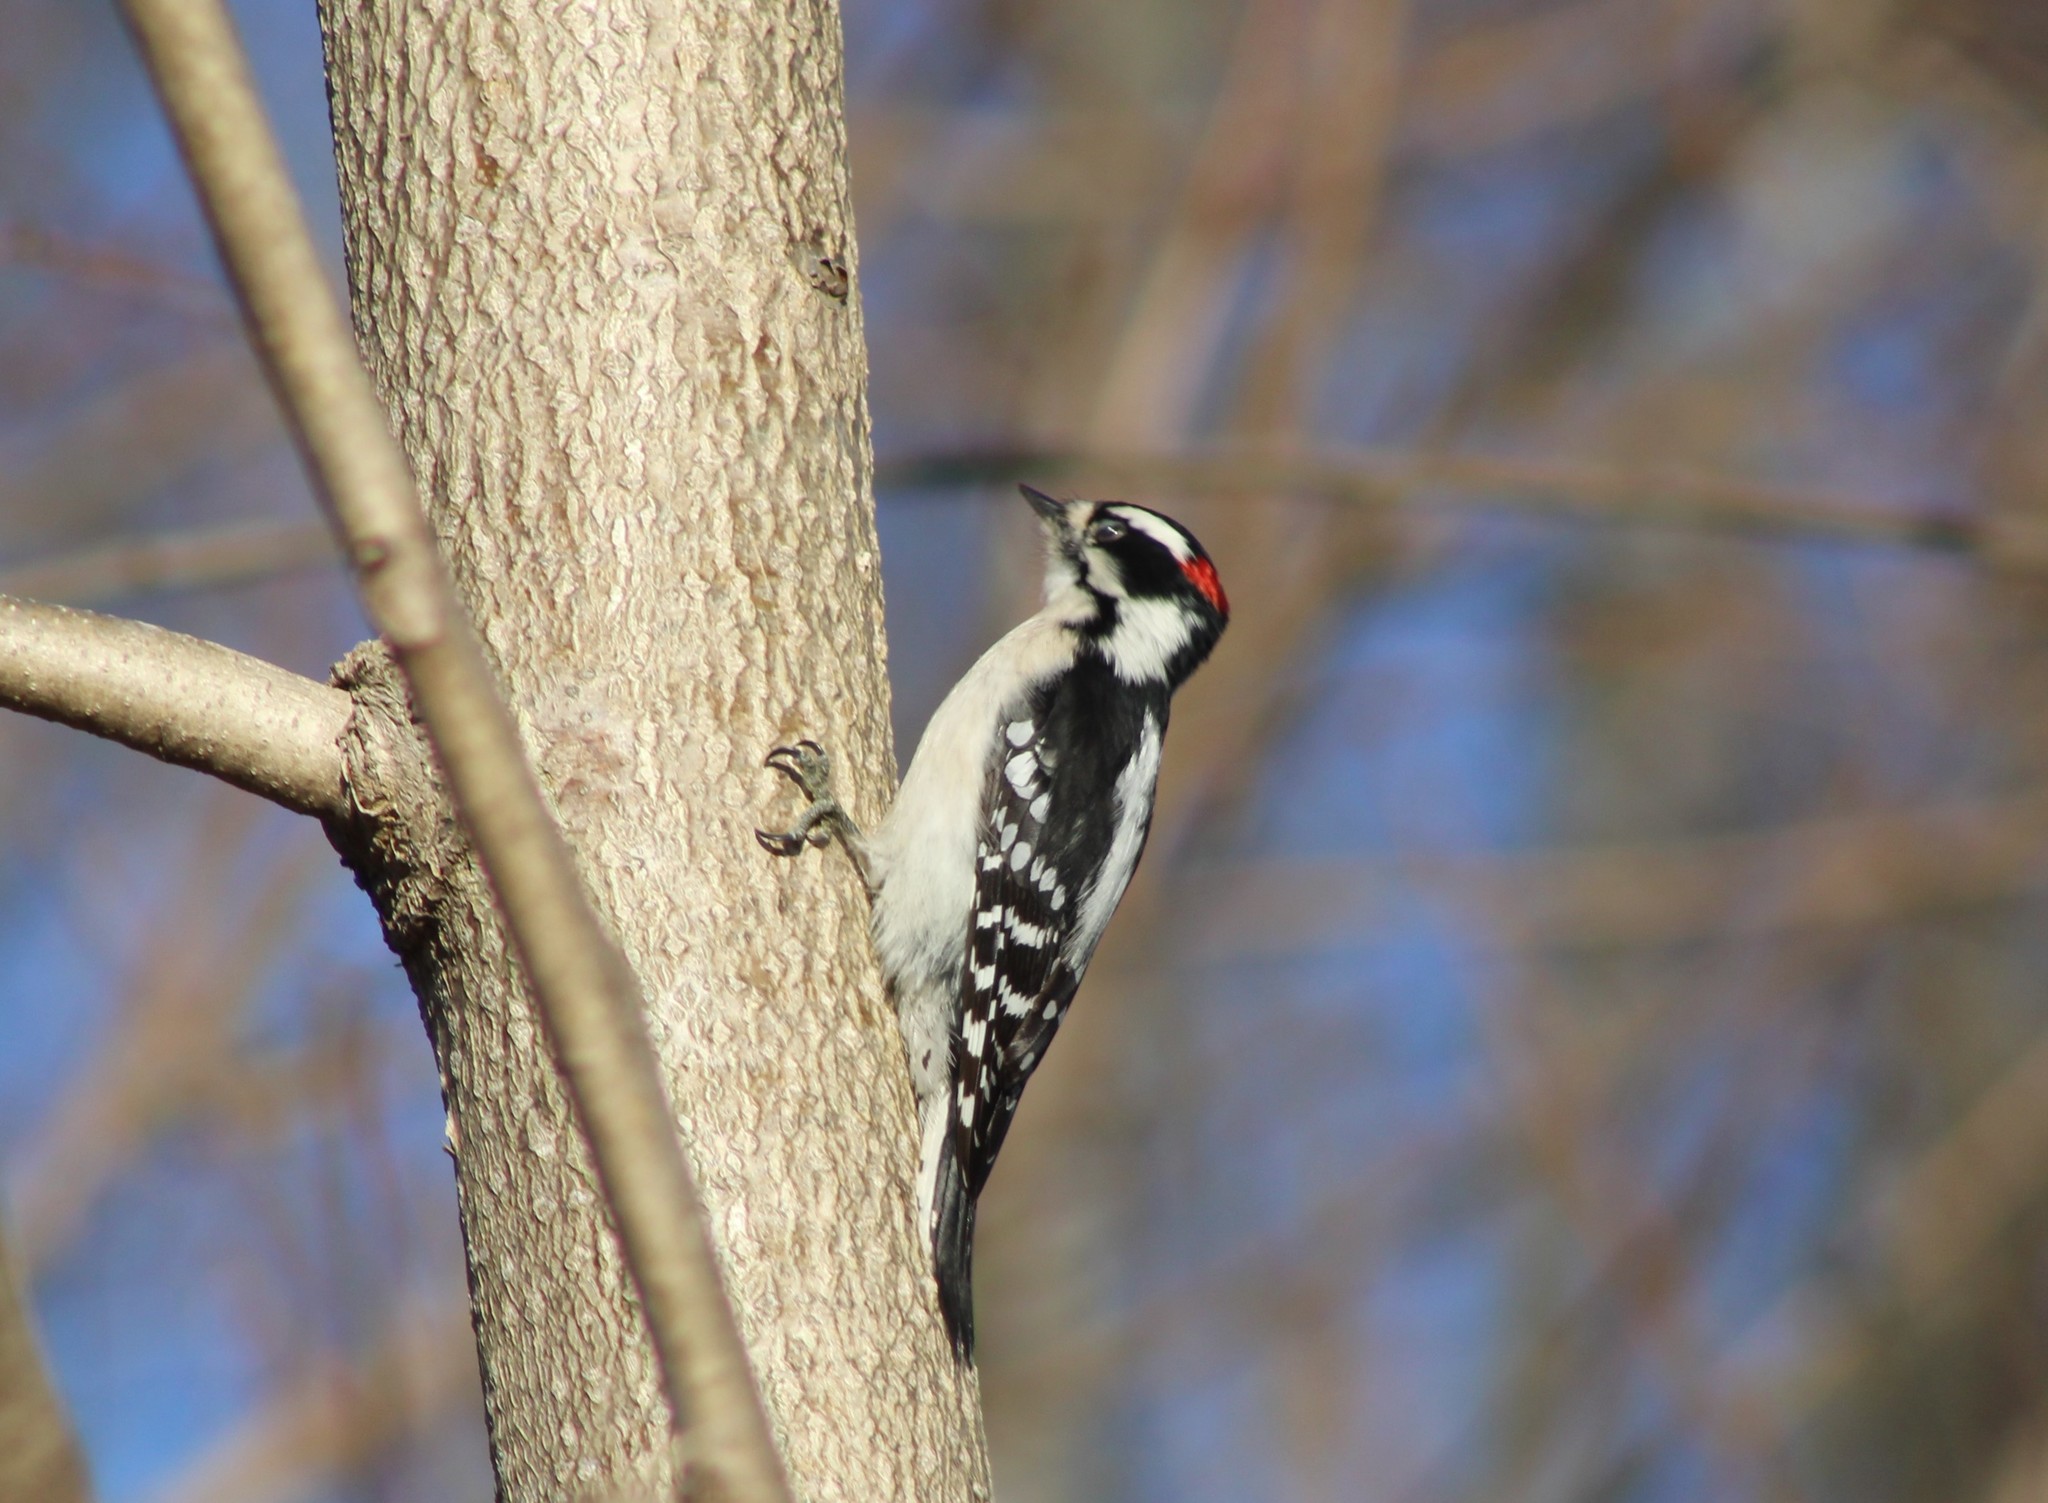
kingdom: Animalia
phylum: Chordata
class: Aves
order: Piciformes
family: Picidae
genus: Dryobates
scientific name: Dryobates pubescens
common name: Downy woodpecker
